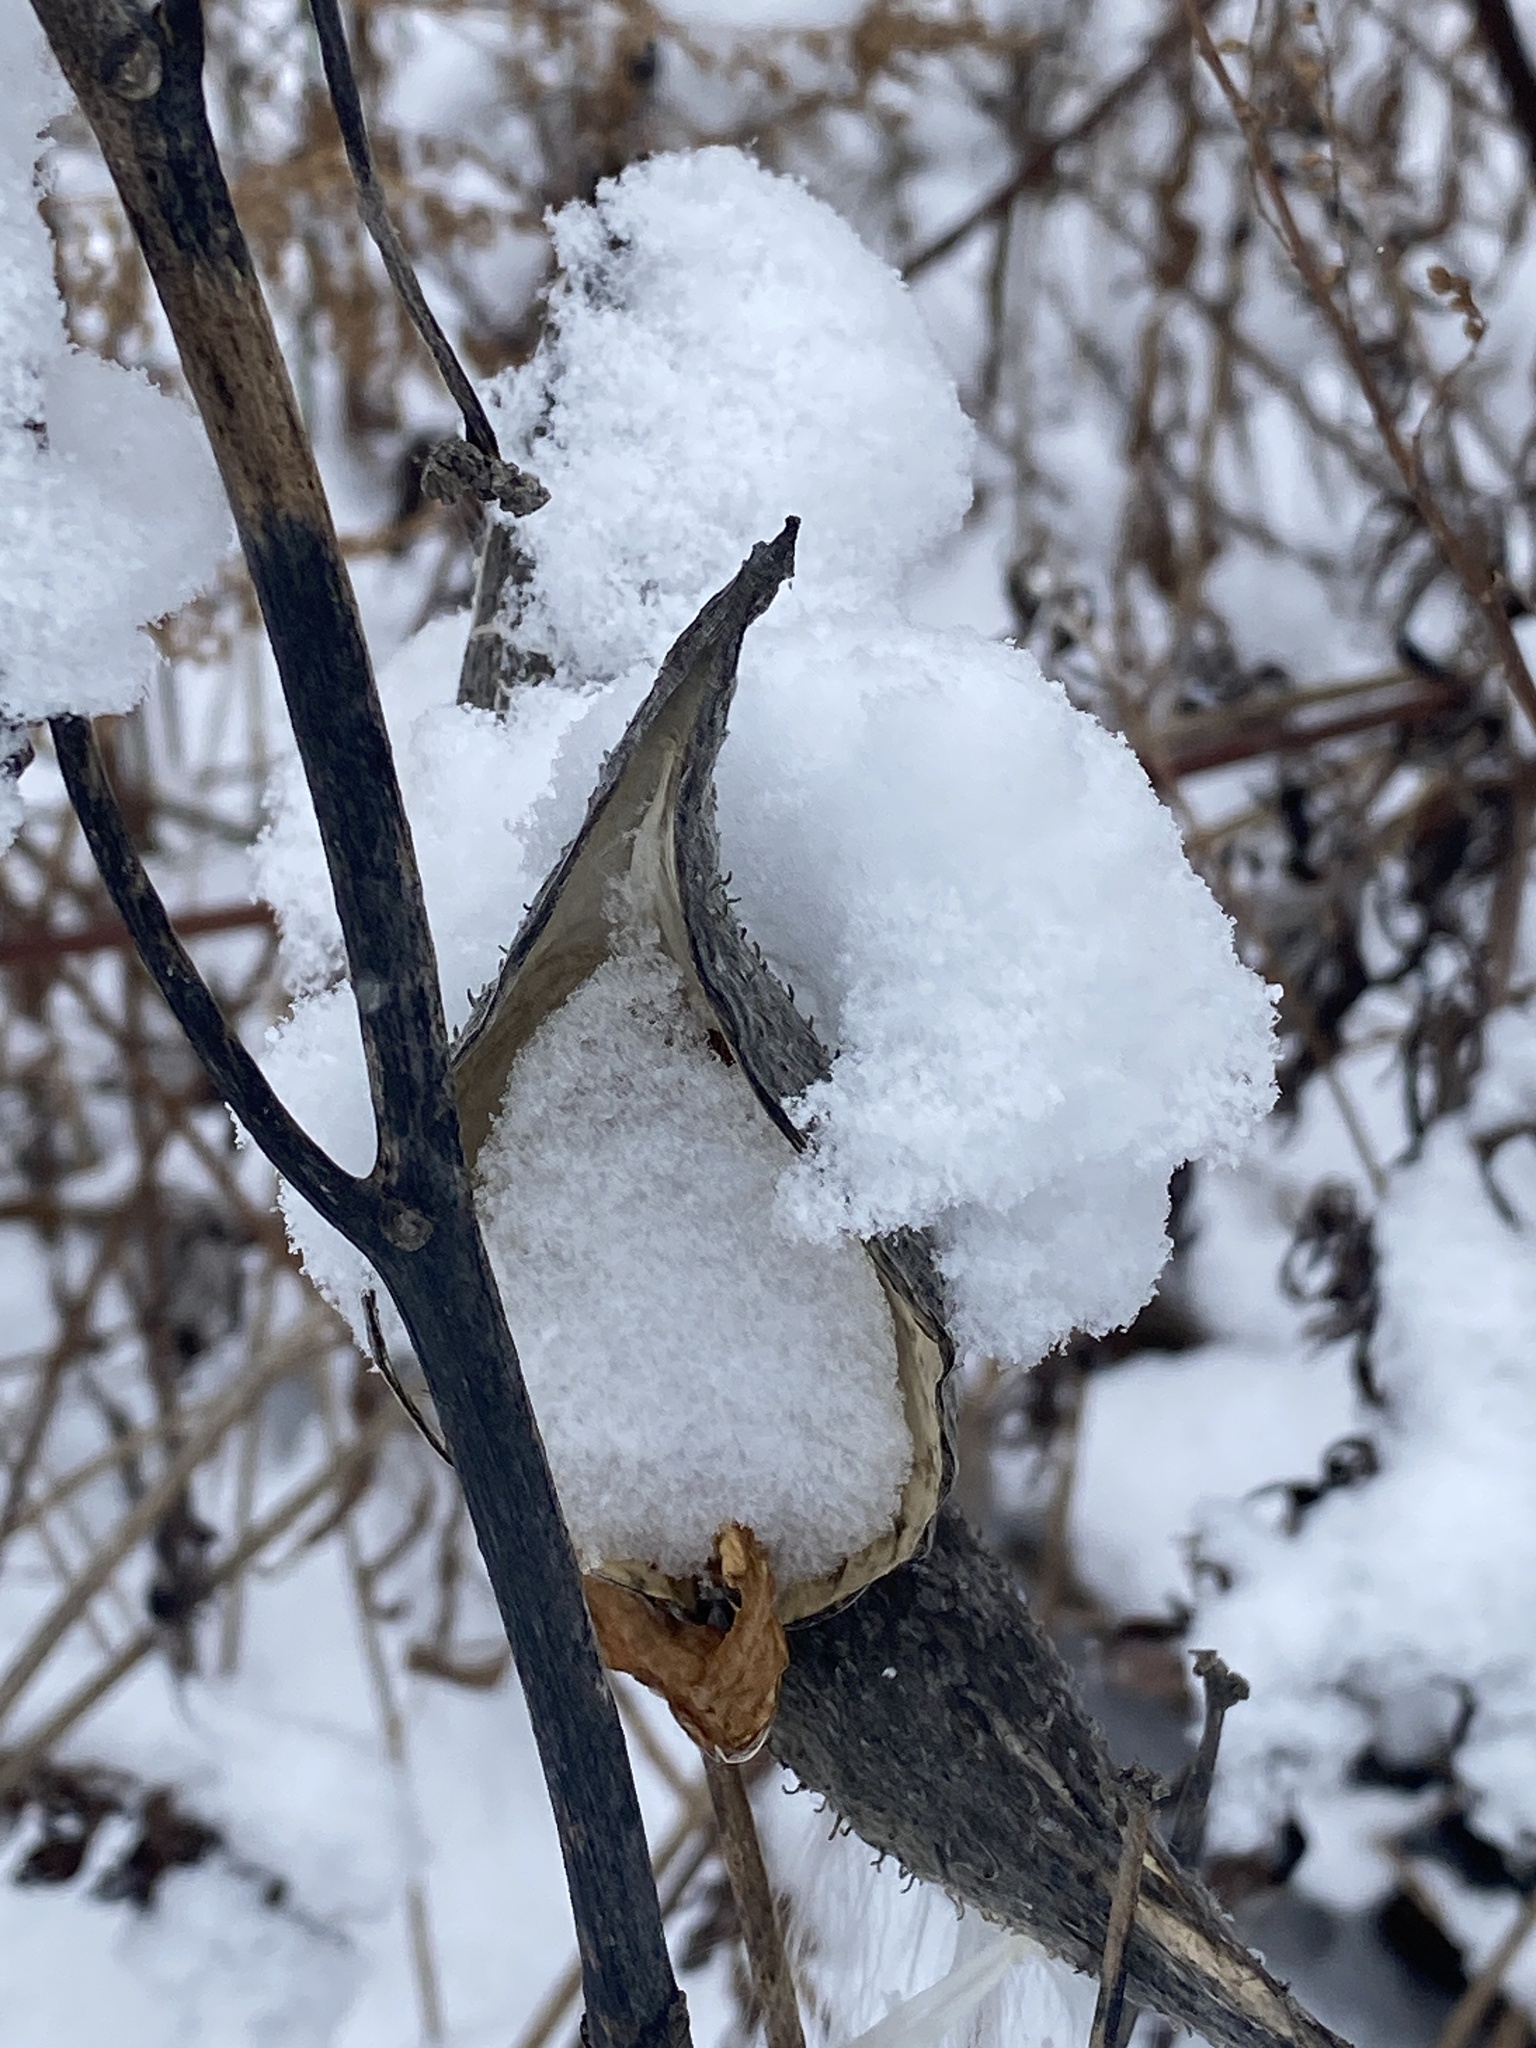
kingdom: Plantae
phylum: Tracheophyta
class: Magnoliopsida
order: Gentianales
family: Apocynaceae
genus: Asclepias
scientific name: Asclepias syriaca
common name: Common milkweed
